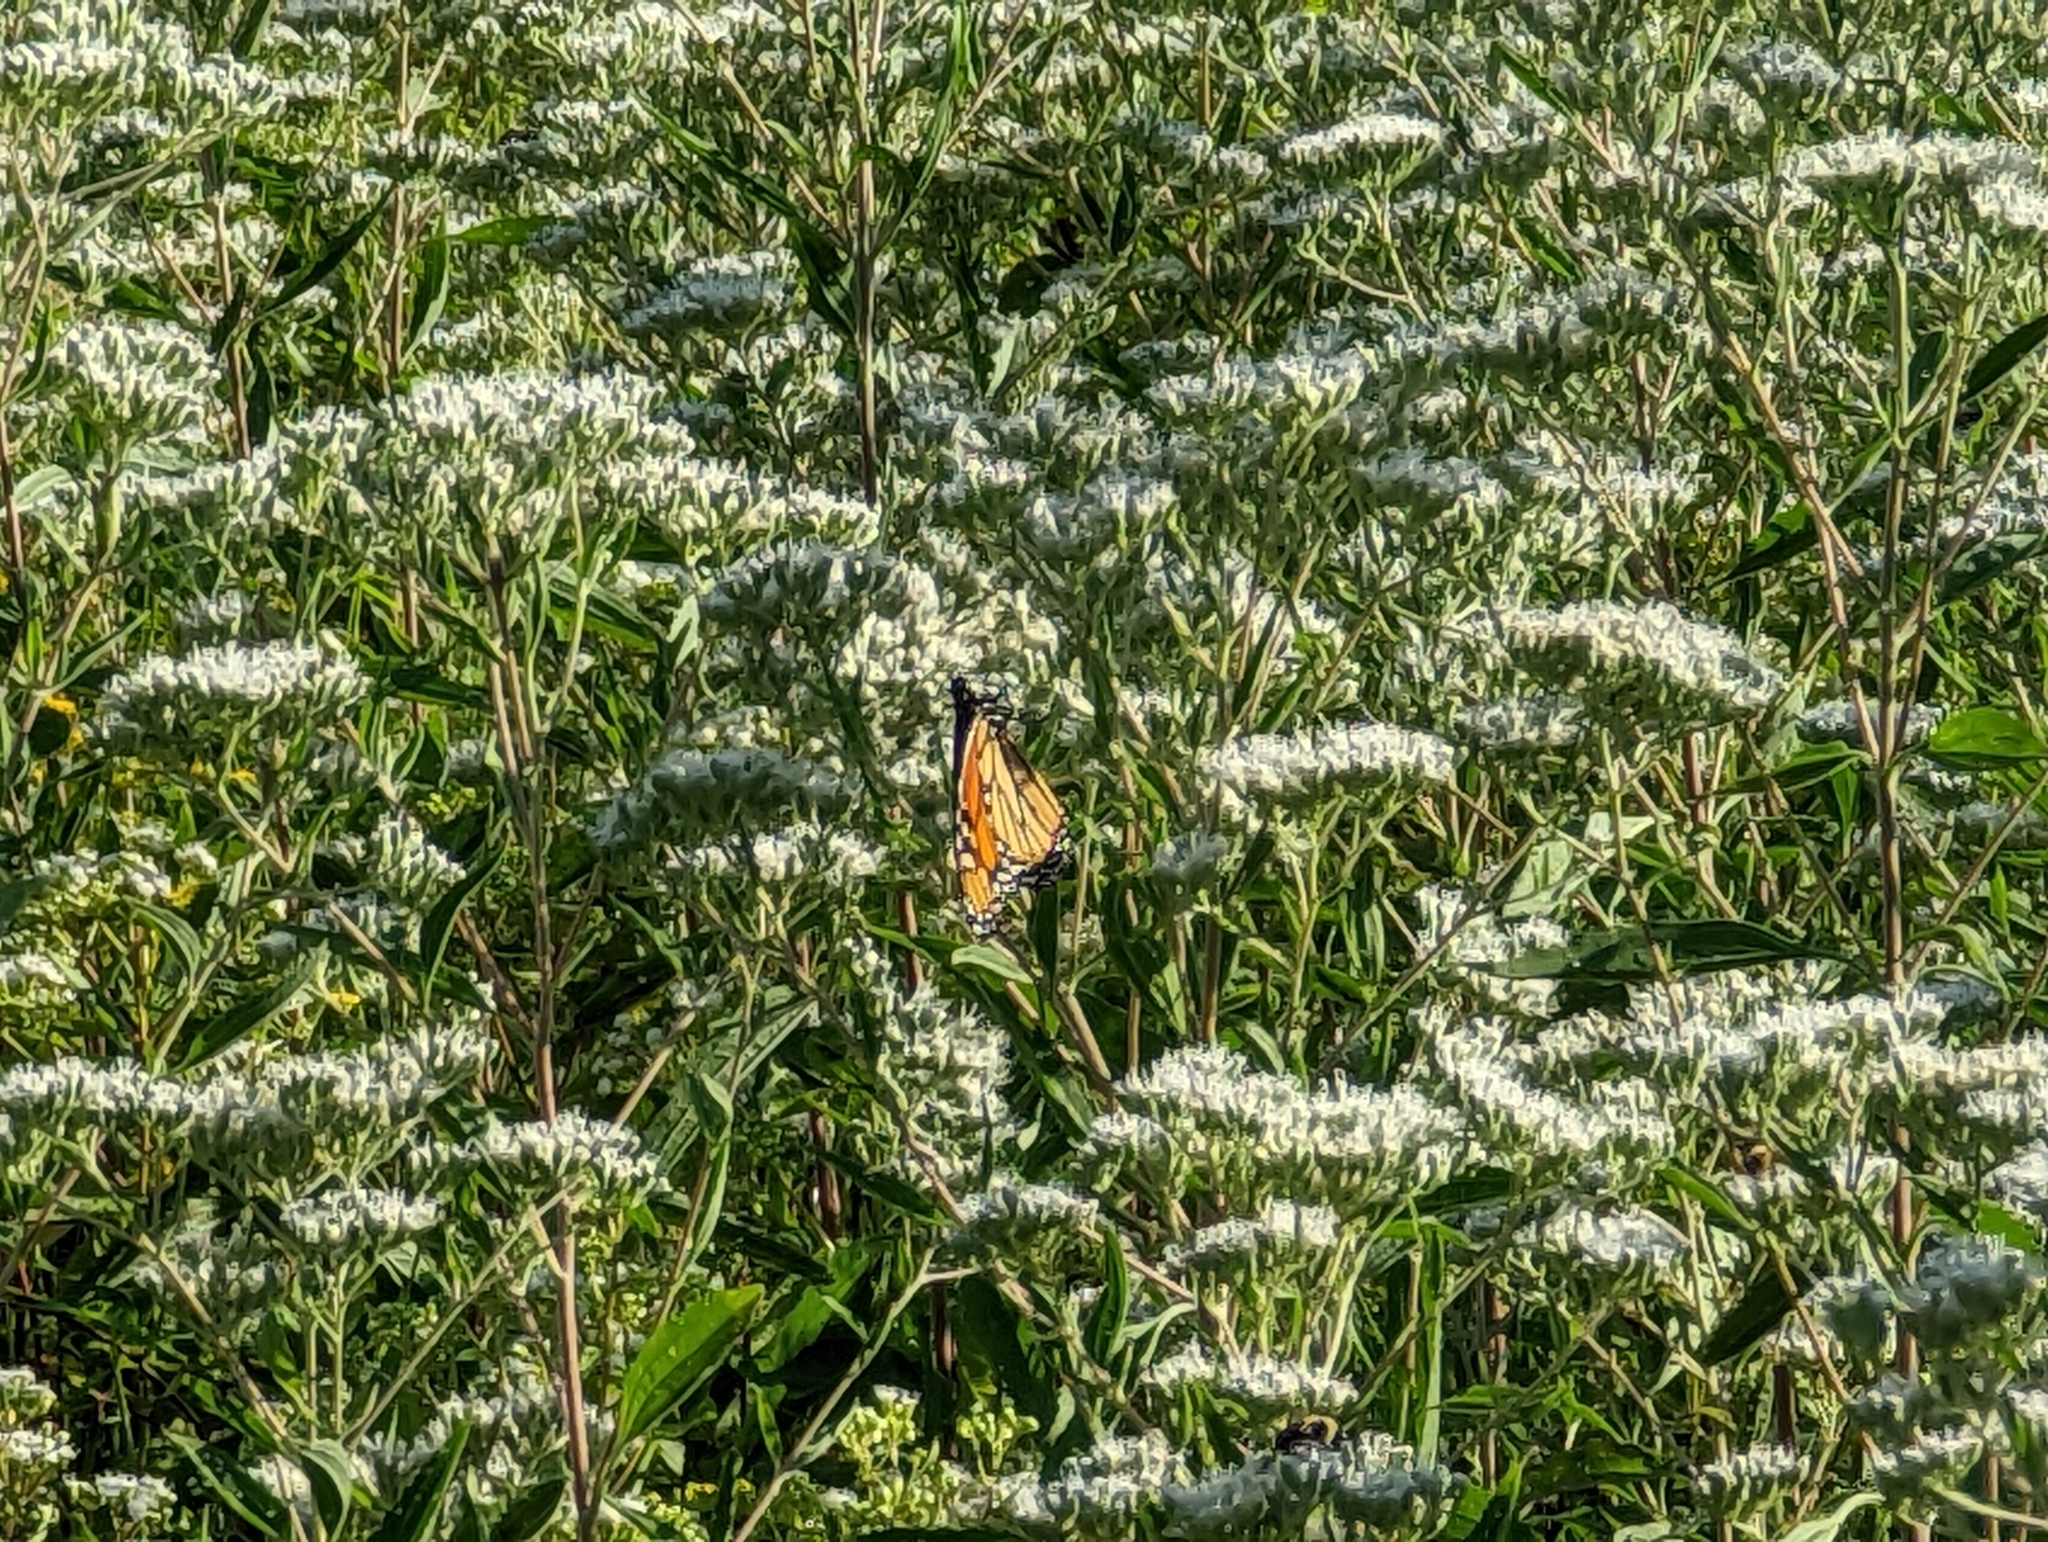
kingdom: Animalia
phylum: Arthropoda
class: Insecta
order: Lepidoptera
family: Nymphalidae
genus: Danaus
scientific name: Danaus plexippus
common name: Monarch
